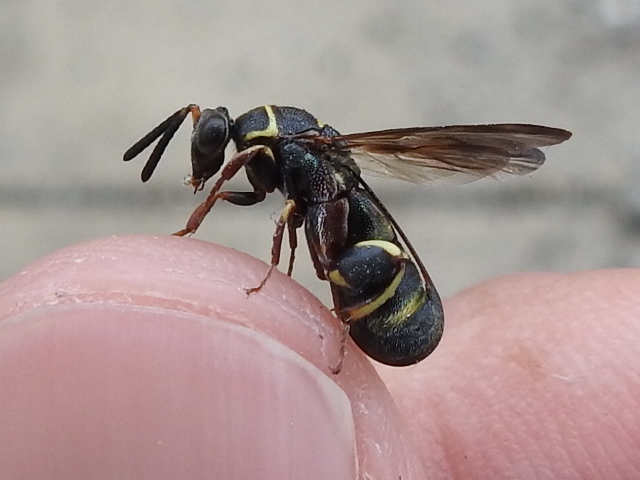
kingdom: Animalia
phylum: Arthropoda
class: Insecta
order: Hymenoptera
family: Leucospidae
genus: Leucospis
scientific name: Leucospis birkmani
